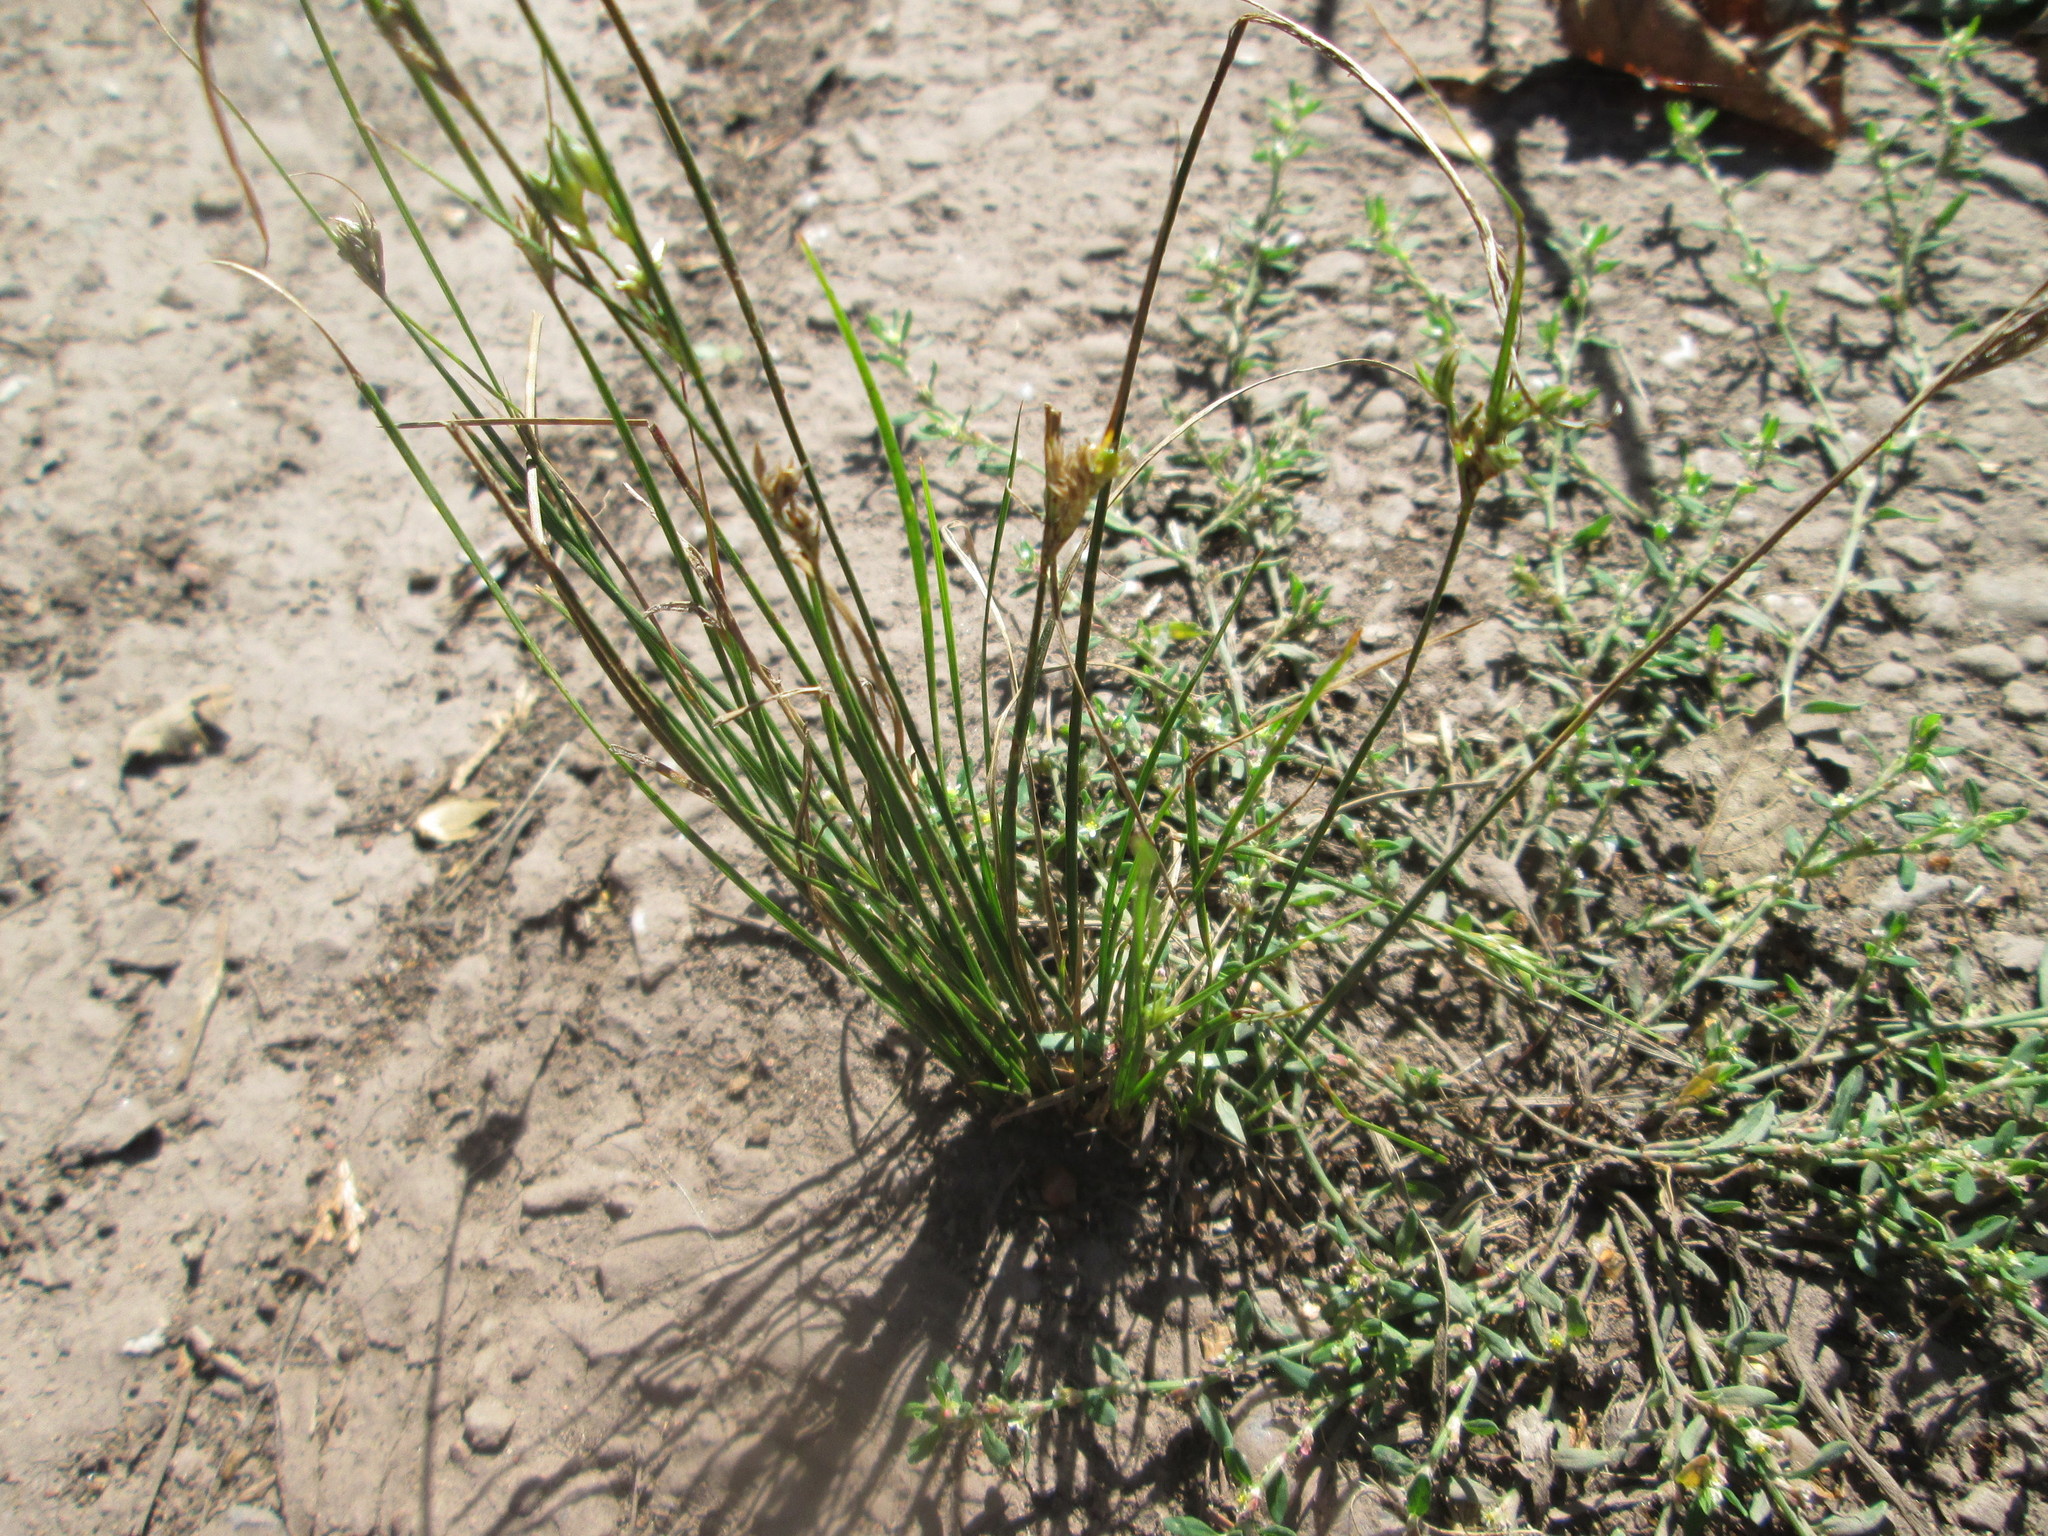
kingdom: Plantae
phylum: Tracheophyta
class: Liliopsida
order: Poales
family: Juncaceae
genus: Juncus
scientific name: Juncus tenuis
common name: Slender rush
